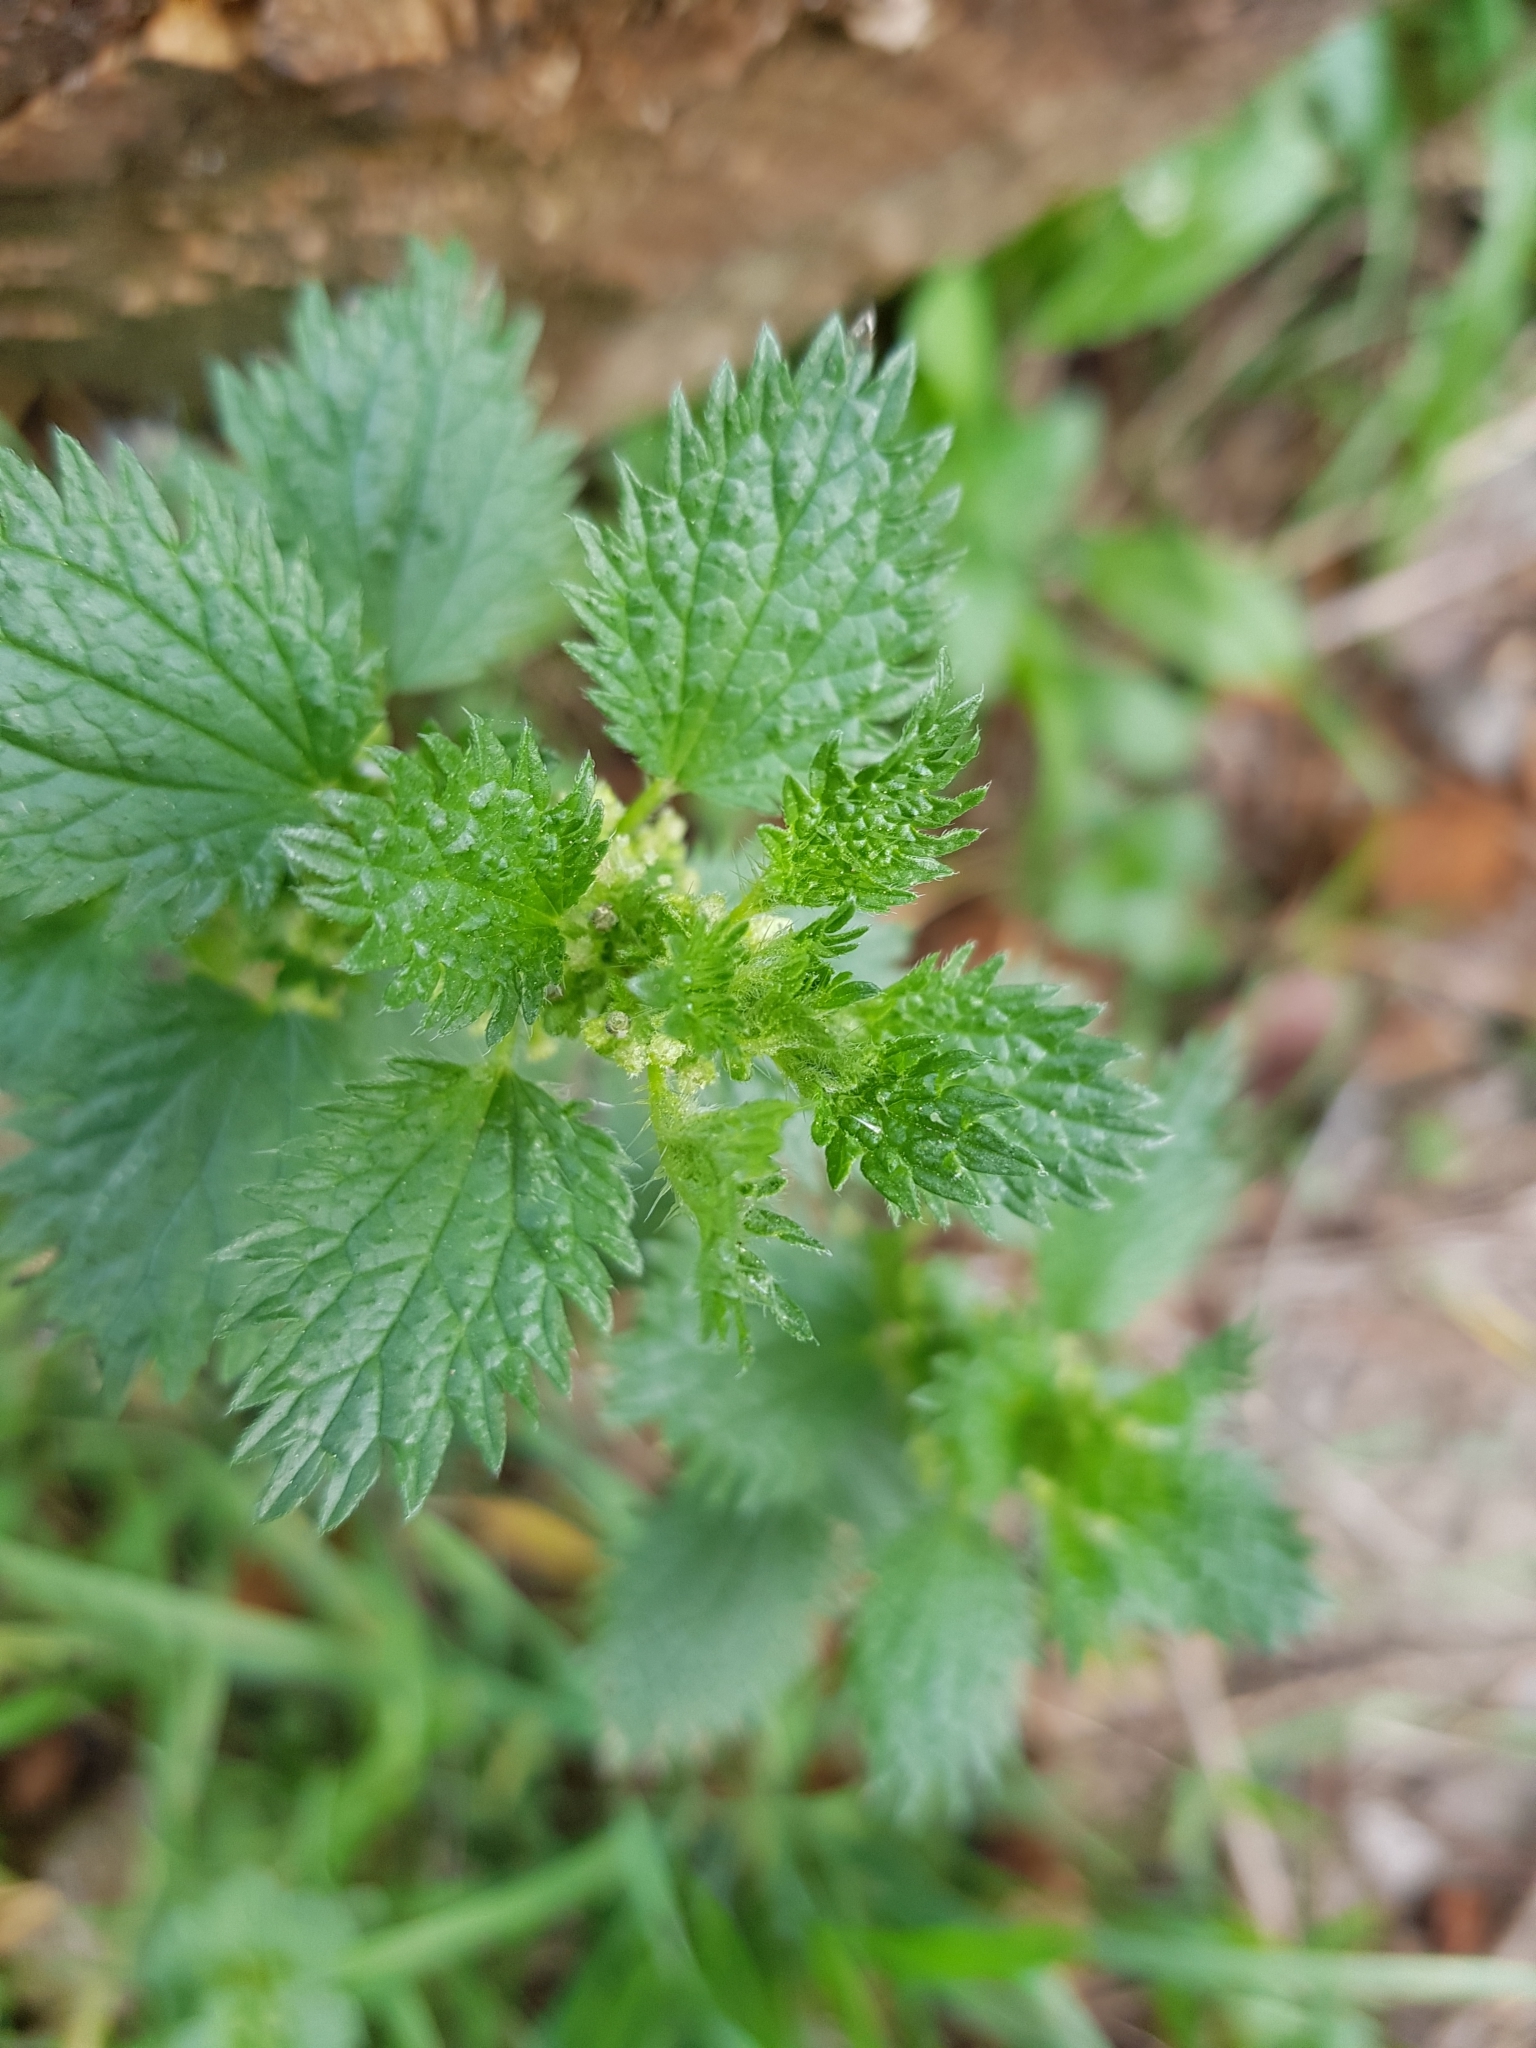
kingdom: Plantae
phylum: Tracheophyta
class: Magnoliopsida
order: Rosales
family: Urticaceae
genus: Urtica
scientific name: Urtica urens
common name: Dwarf nettle
